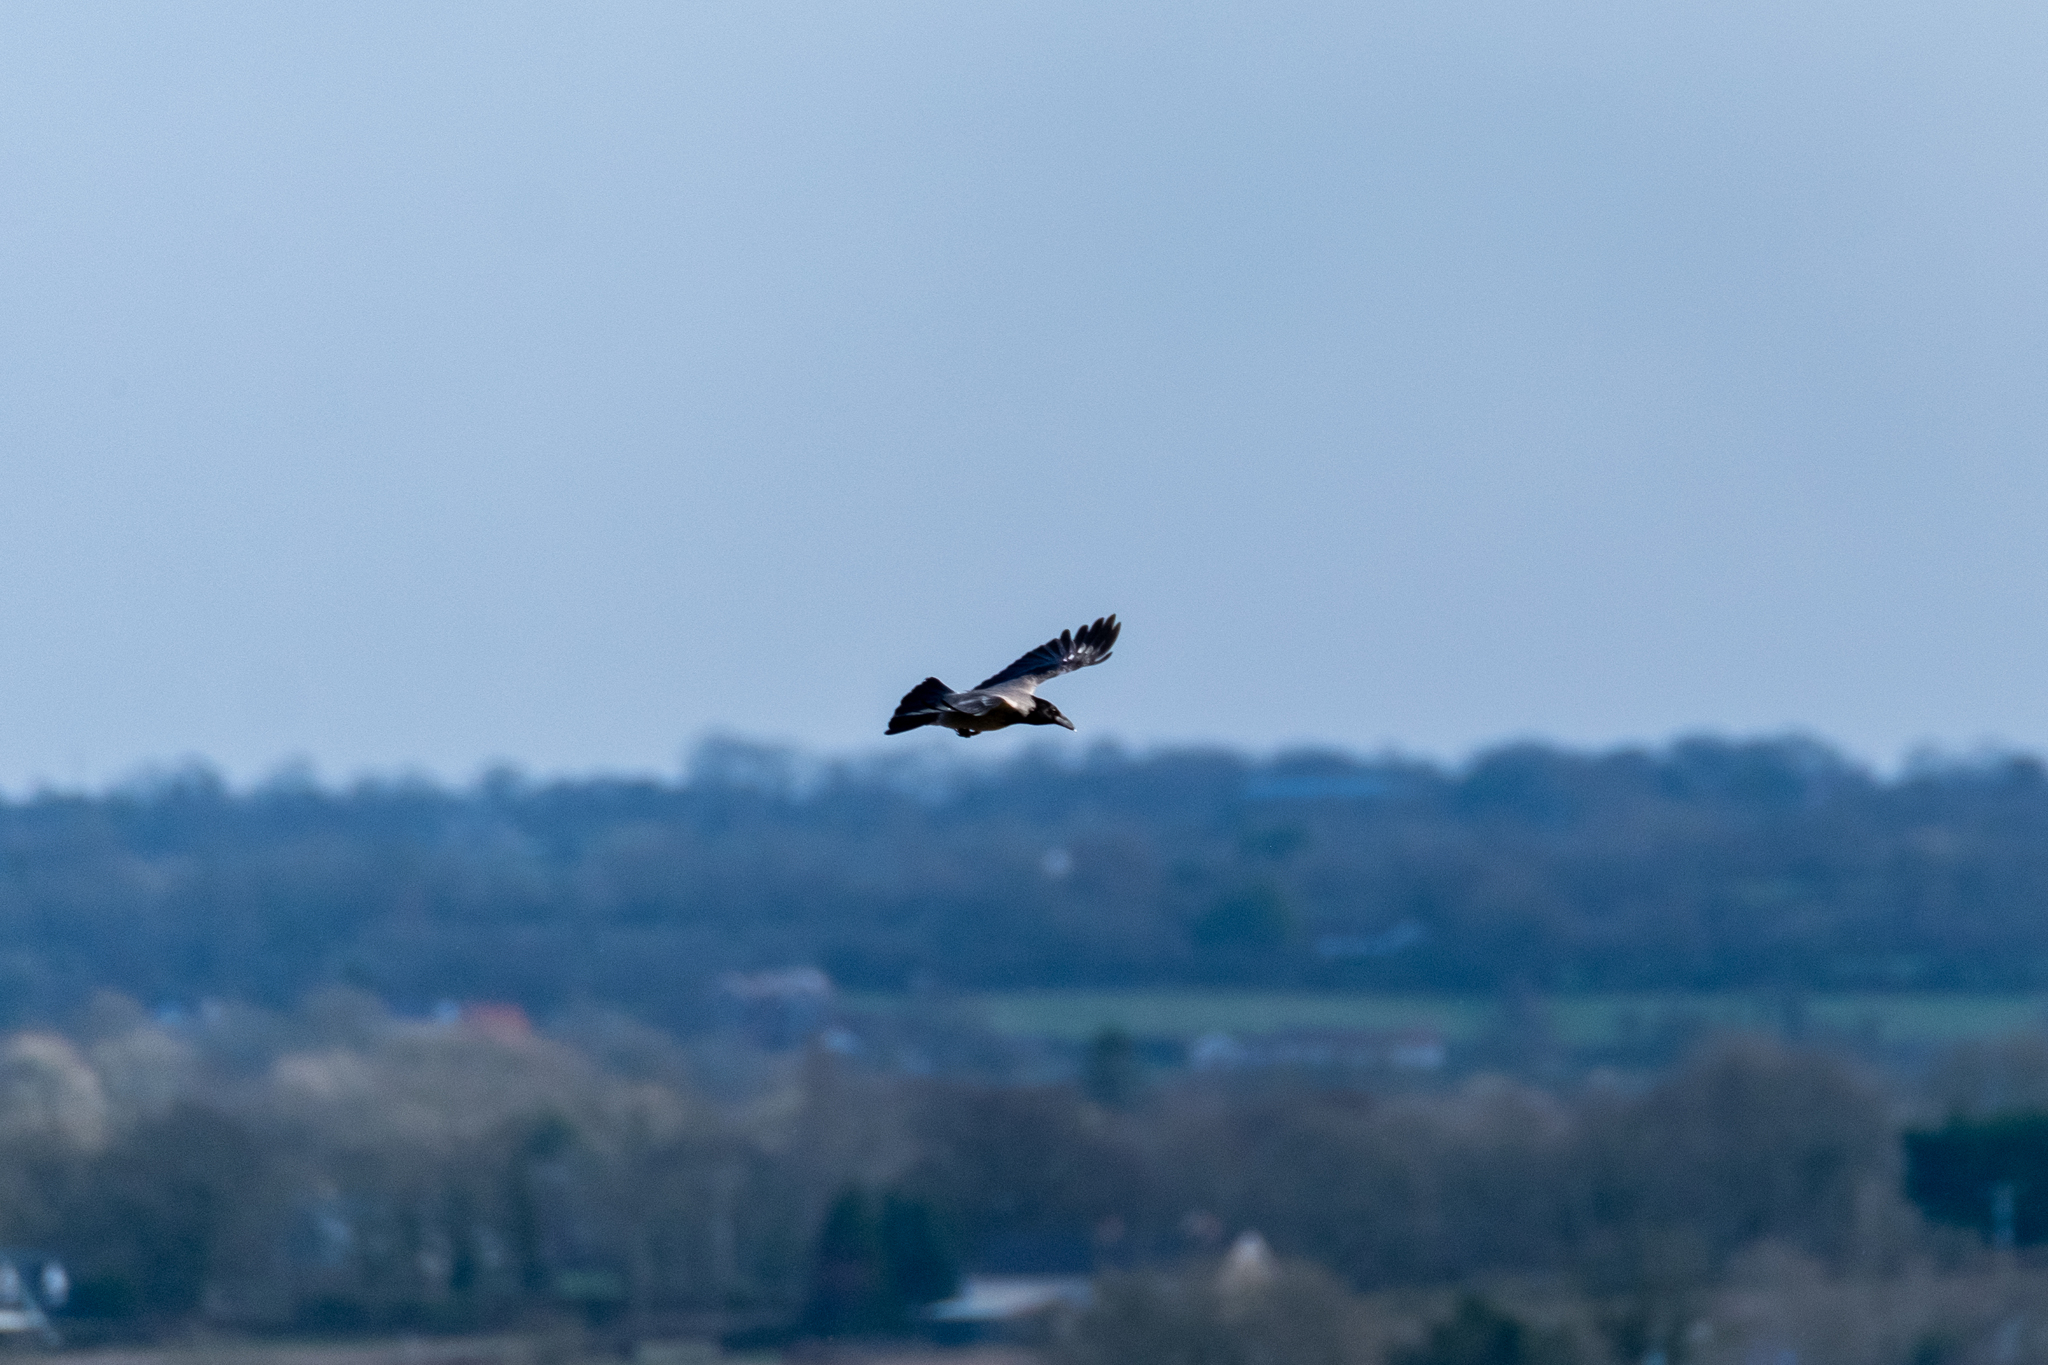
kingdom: Animalia
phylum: Chordata
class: Aves
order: Passeriformes
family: Corvidae
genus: Corvus
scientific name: Corvus cornix
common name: Hooded crow
